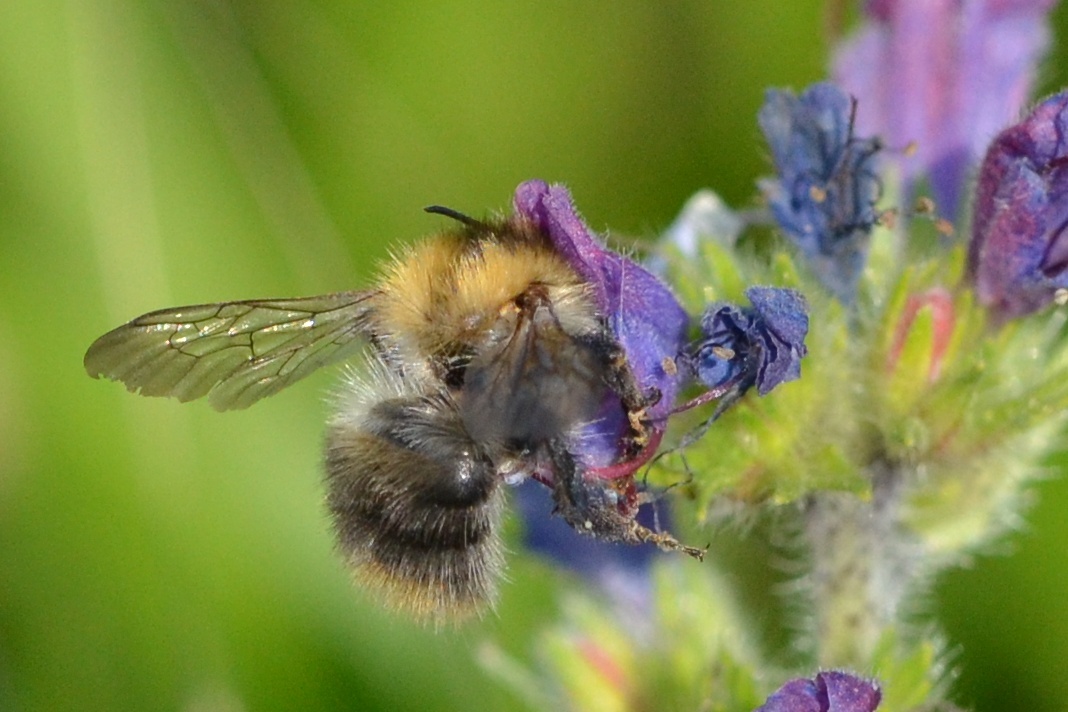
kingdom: Animalia
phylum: Arthropoda
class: Insecta
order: Hymenoptera
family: Apidae
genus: Bombus
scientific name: Bombus pascuorum
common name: Common carder bee
